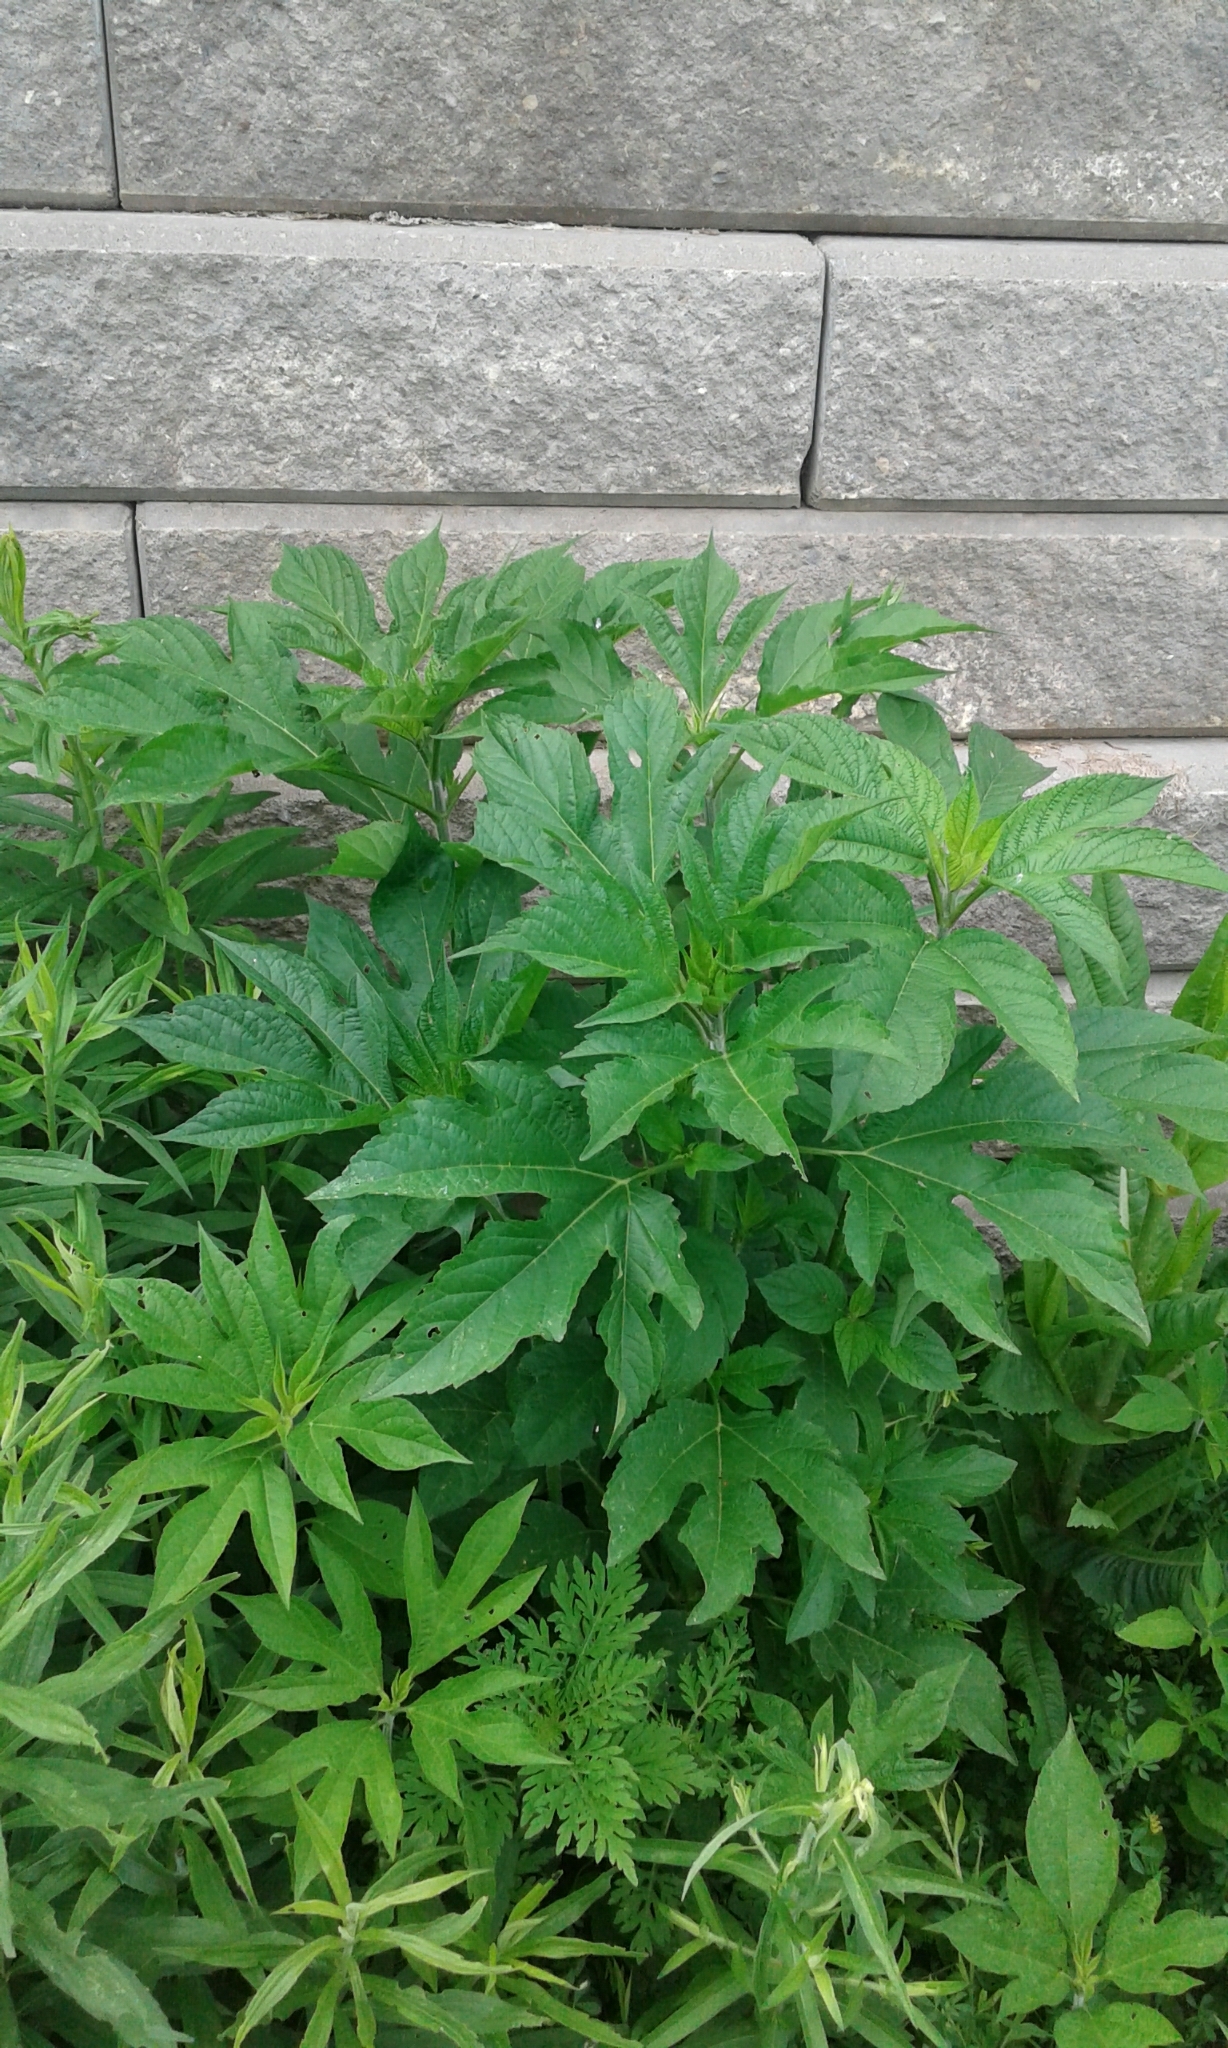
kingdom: Plantae
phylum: Tracheophyta
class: Magnoliopsida
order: Asterales
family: Asteraceae
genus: Ambrosia
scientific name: Ambrosia trifida
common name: Giant ragweed
